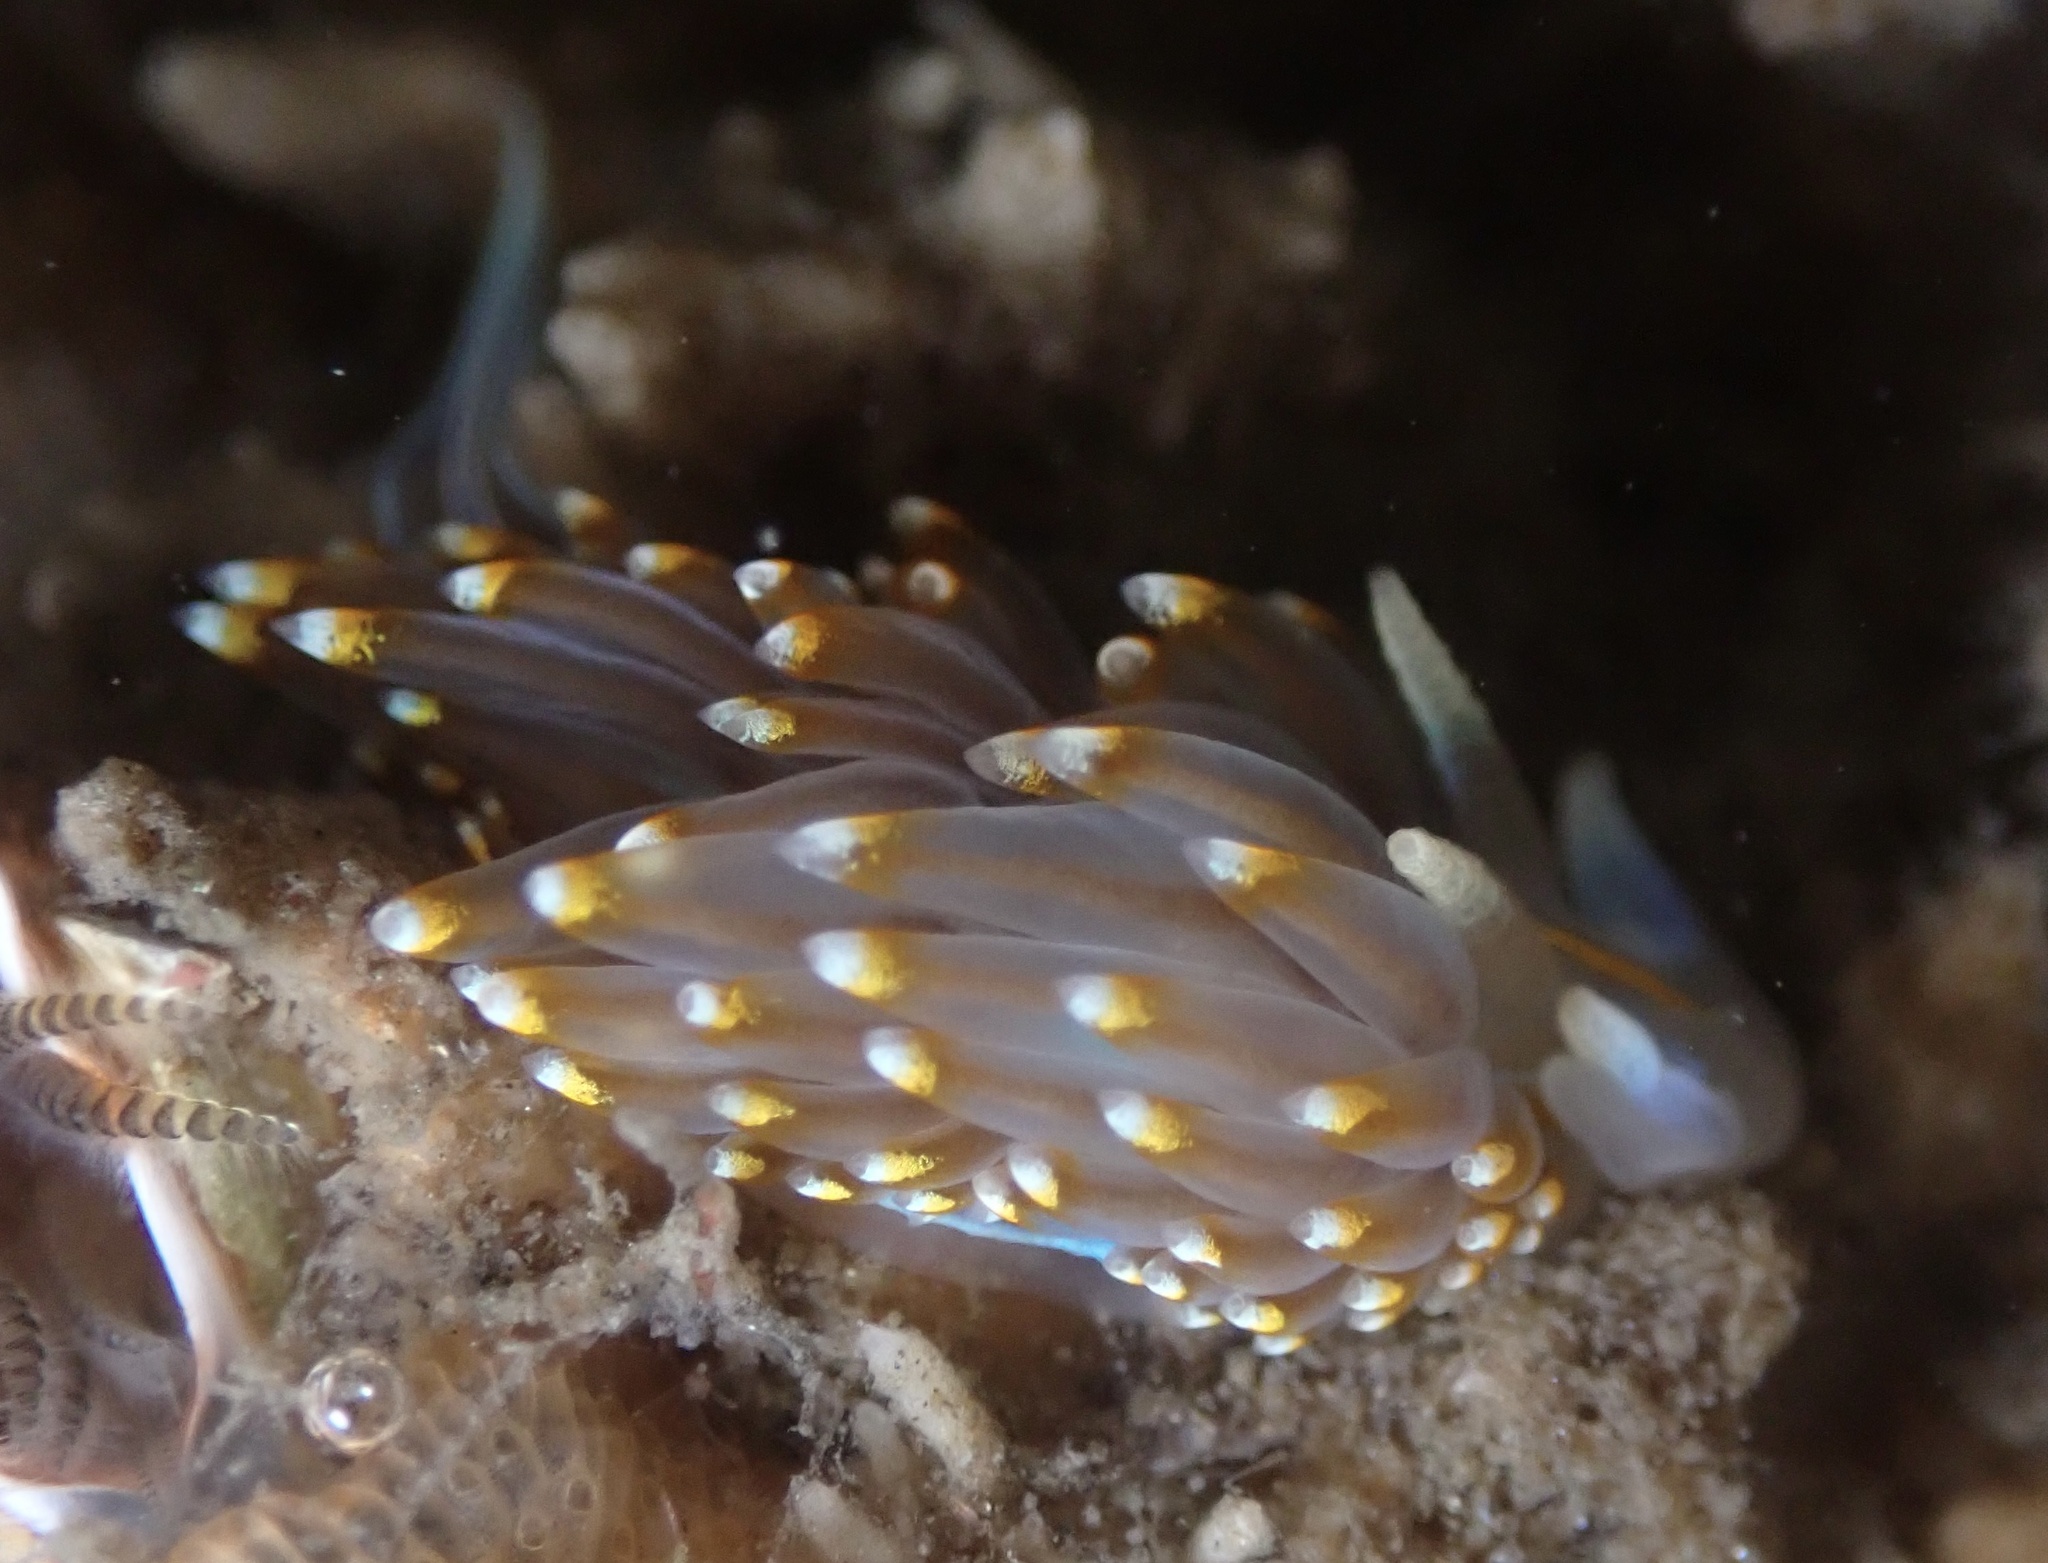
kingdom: Animalia
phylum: Mollusca
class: Gastropoda
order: Nudibranchia
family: Myrrhinidae
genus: Hermissenda
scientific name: Hermissenda opalescens
